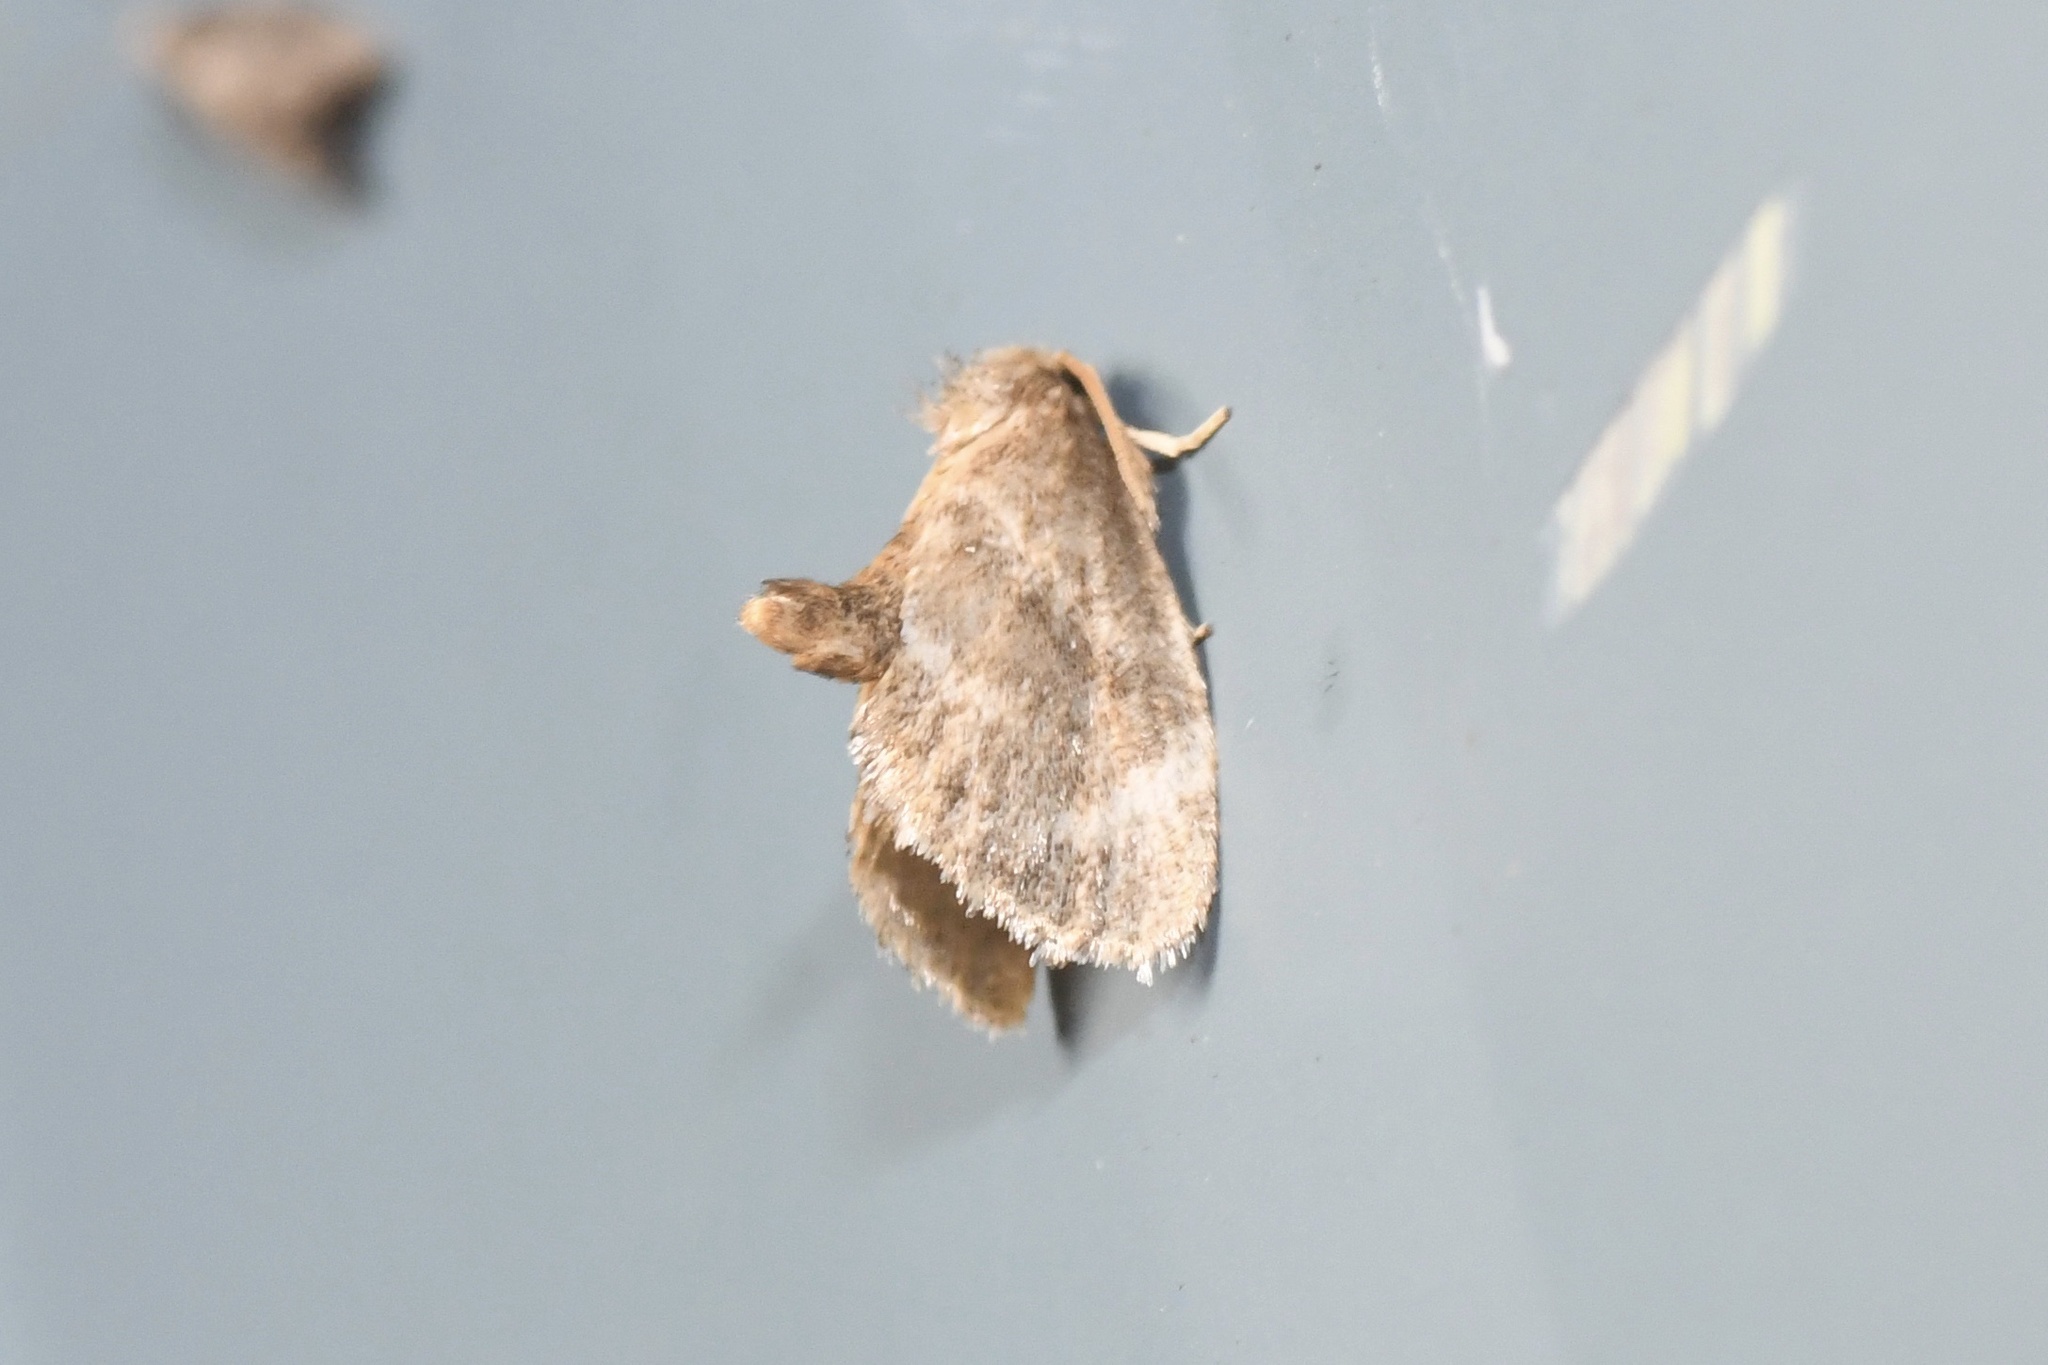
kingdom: Animalia
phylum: Arthropoda
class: Insecta
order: Lepidoptera
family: Limacodidae
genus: Packardia
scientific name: Packardia elegans
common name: Elegant tailed slug moth
